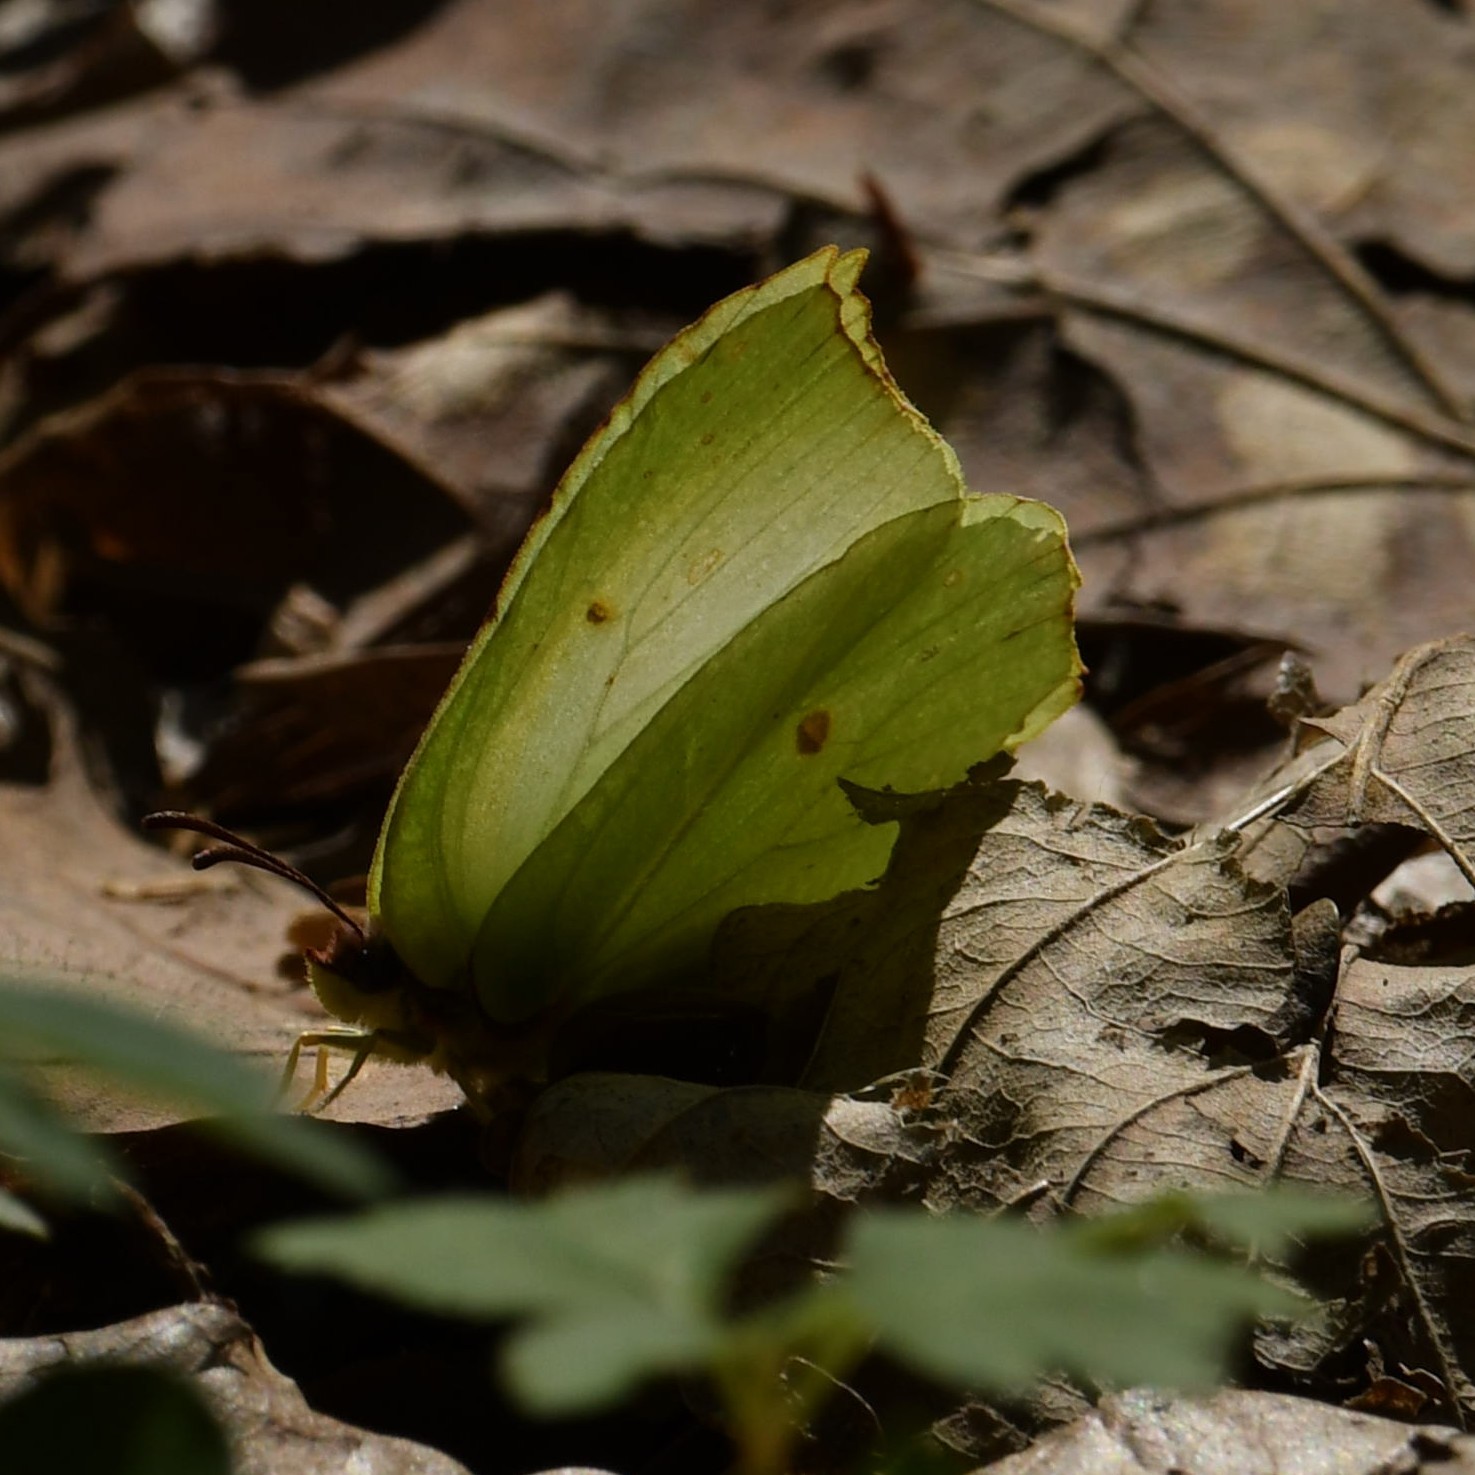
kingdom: Animalia
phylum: Arthropoda
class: Insecta
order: Lepidoptera
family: Pieridae
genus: Gonepteryx
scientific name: Gonepteryx rhamni
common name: Brimstone
